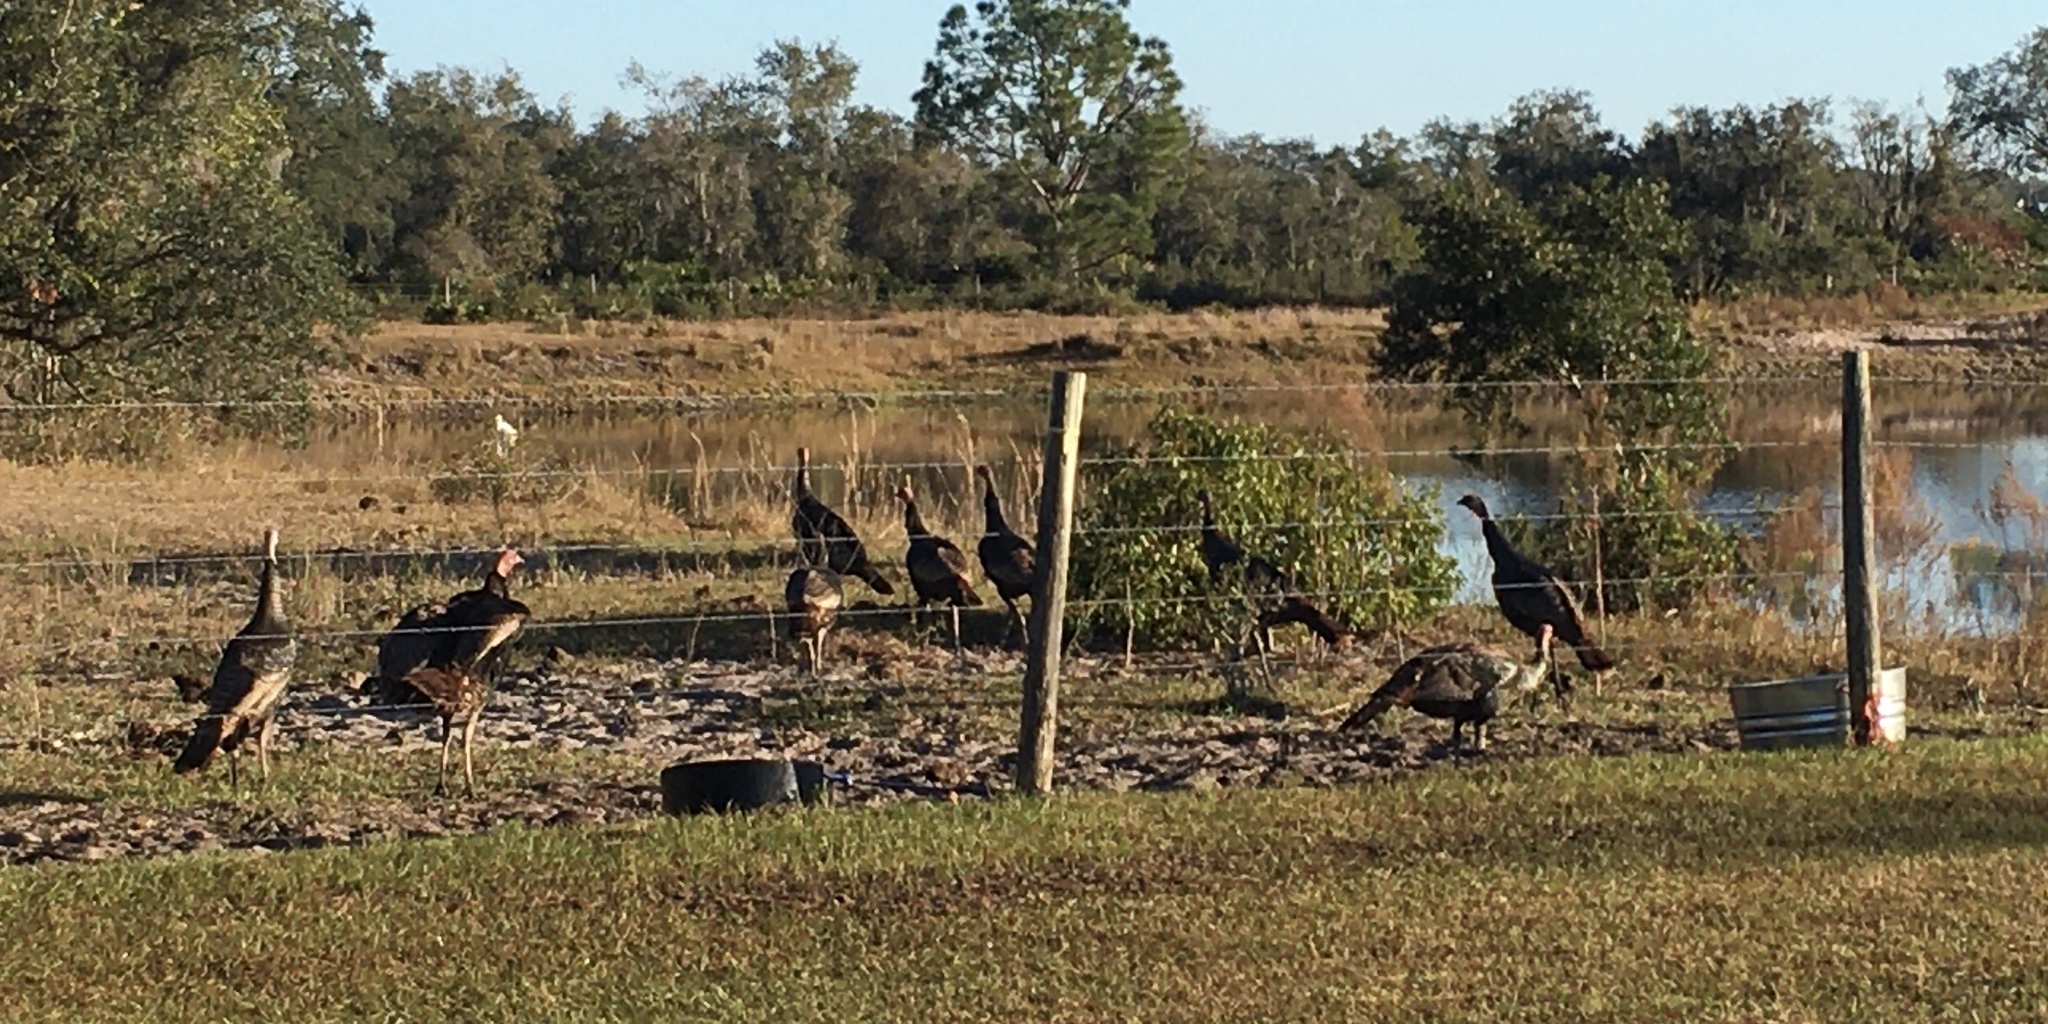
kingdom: Animalia
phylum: Chordata
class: Aves
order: Galliformes
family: Phasianidae
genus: Meleagris
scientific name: Meleagris gallopavo
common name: Wild turkey
